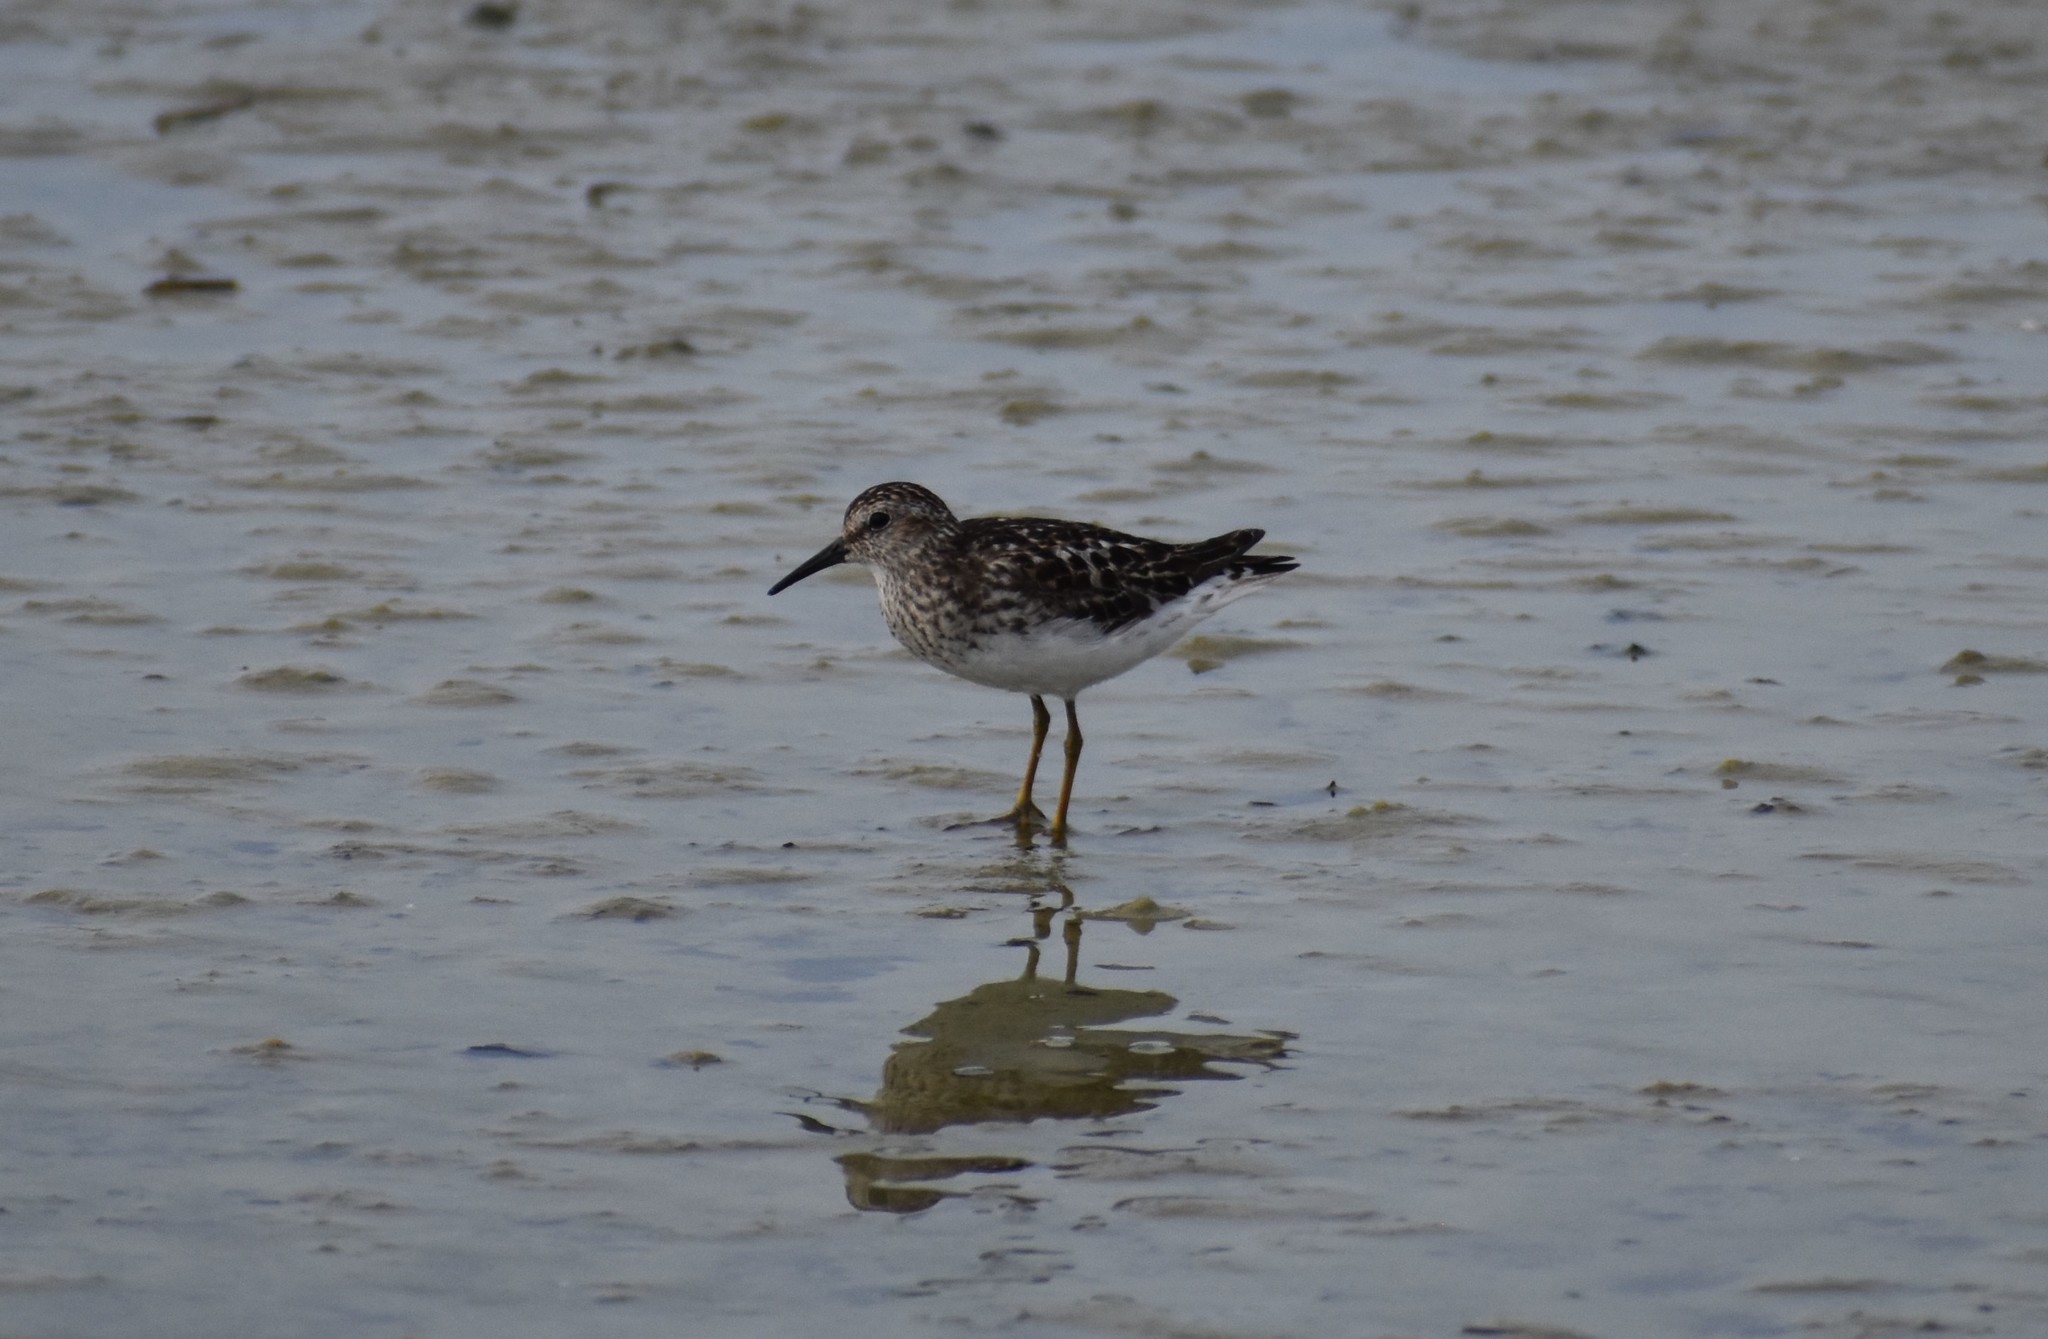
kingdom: Animalia
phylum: Chordata
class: Aves
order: Charadriiformes
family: Scolopacidae
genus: Calidris
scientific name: Calidris minutilla
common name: Least sandpiper
